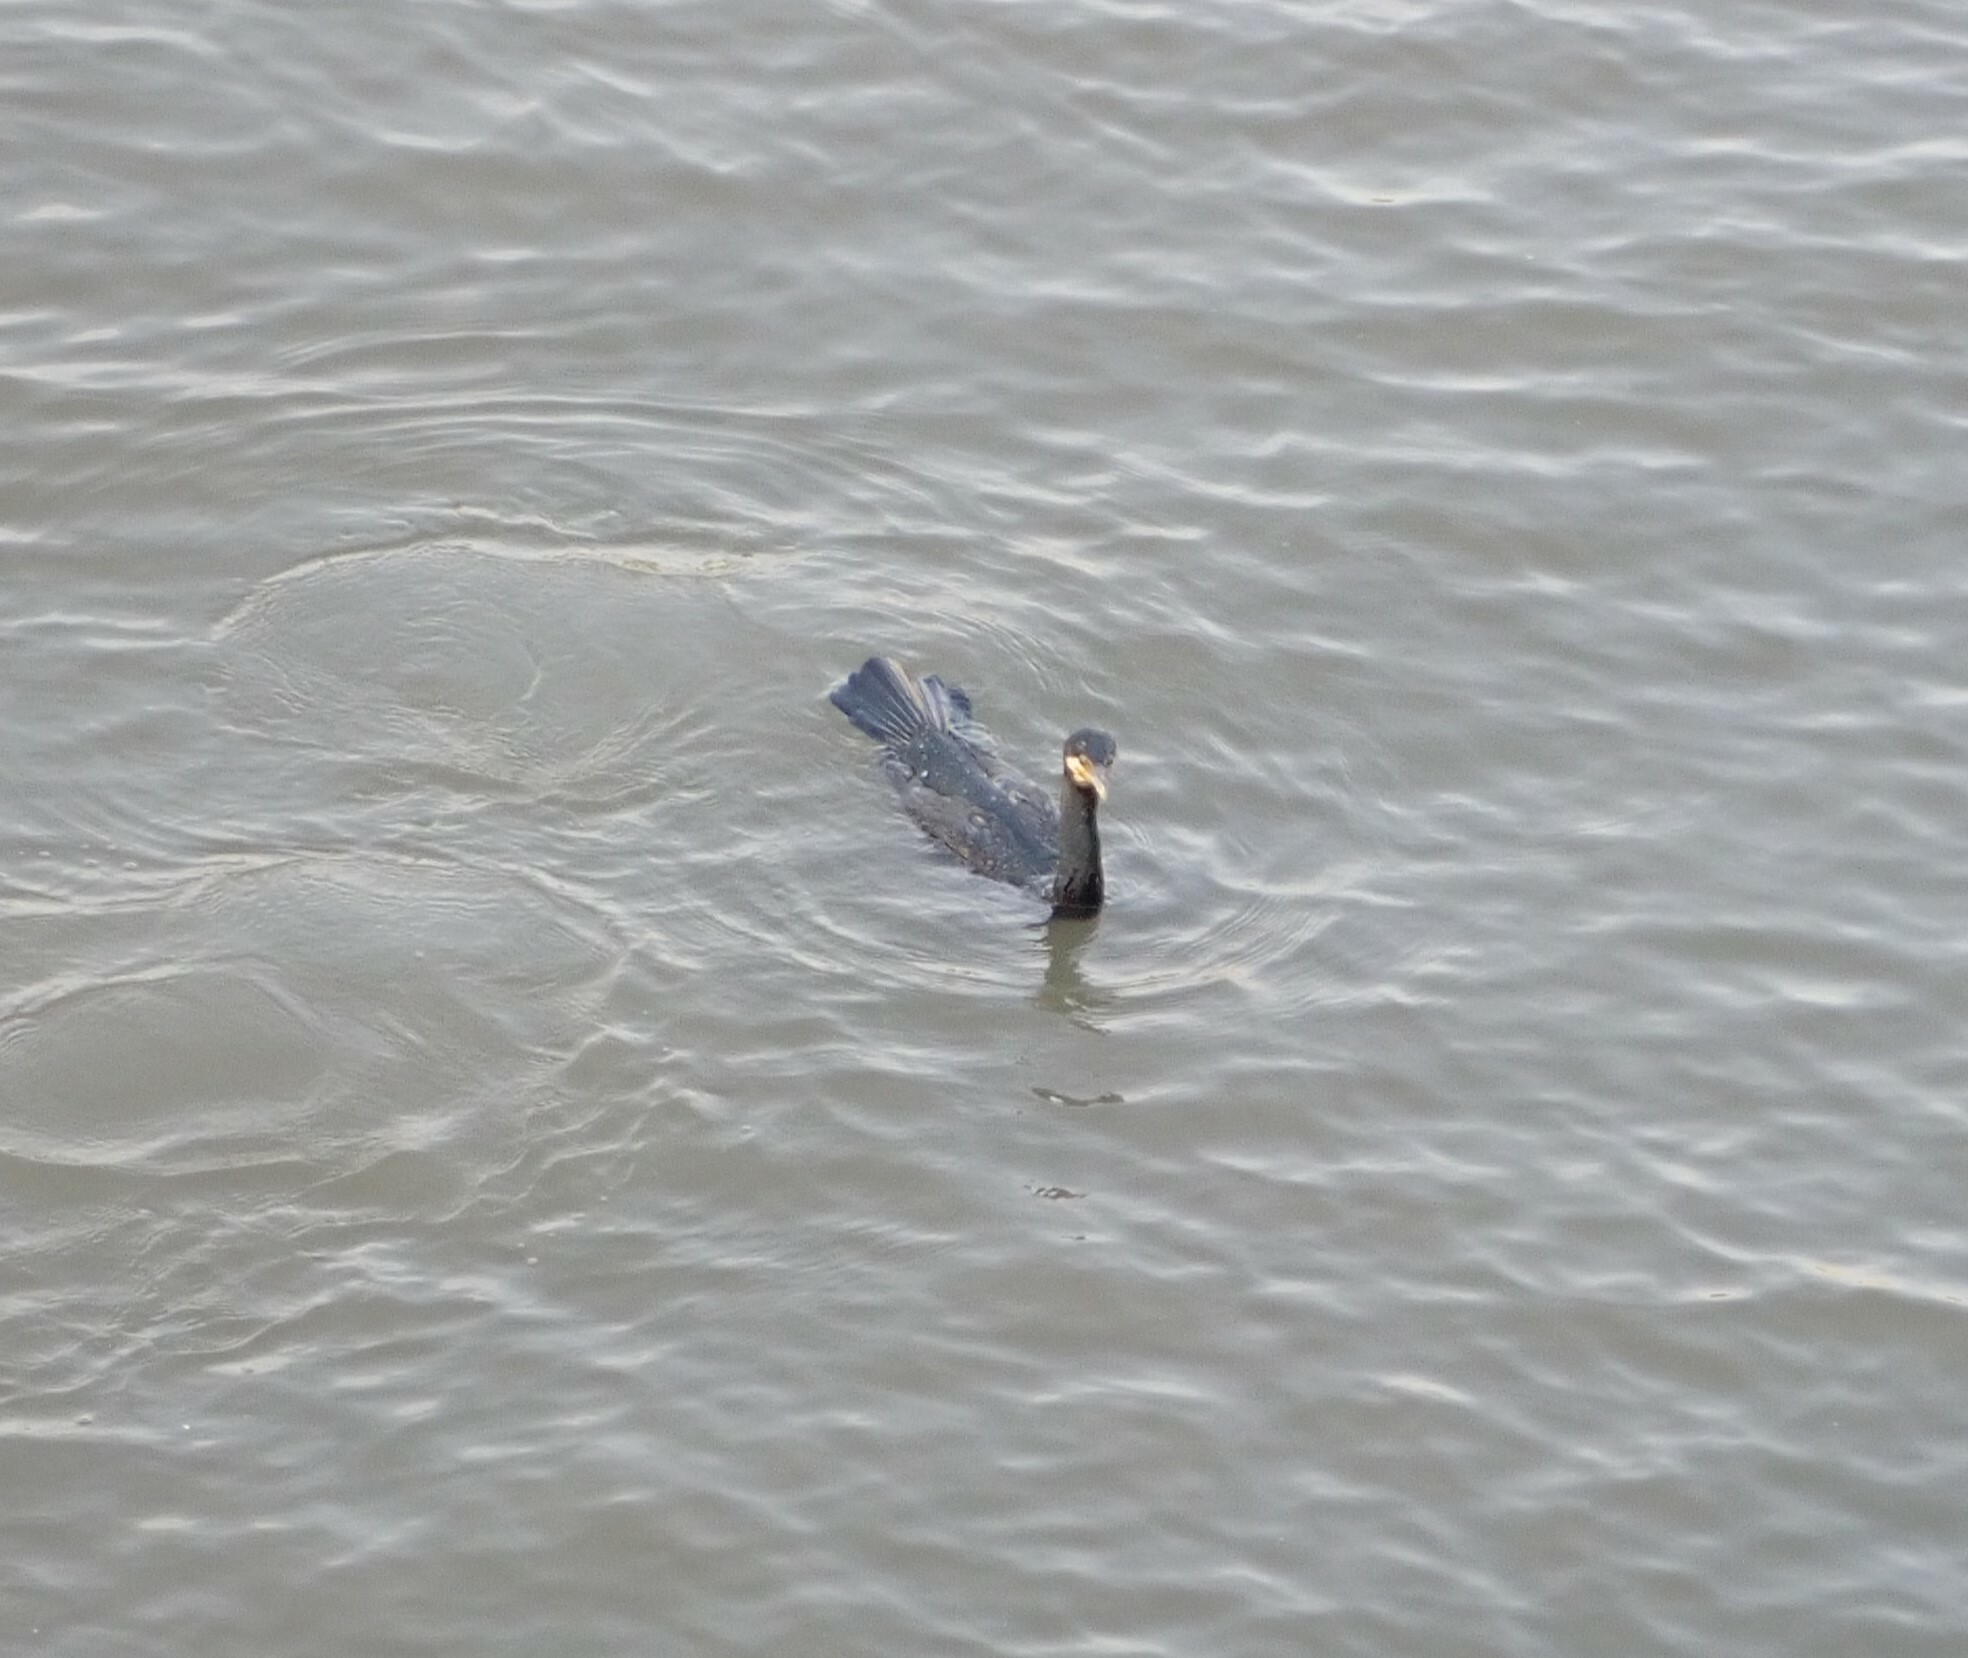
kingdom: Animalia
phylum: Chordata
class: Aves
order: Suliformes
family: Phalacrocoracidae
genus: Phalacrocorax
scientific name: Phalacrocorax carbo
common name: Great cormorant
